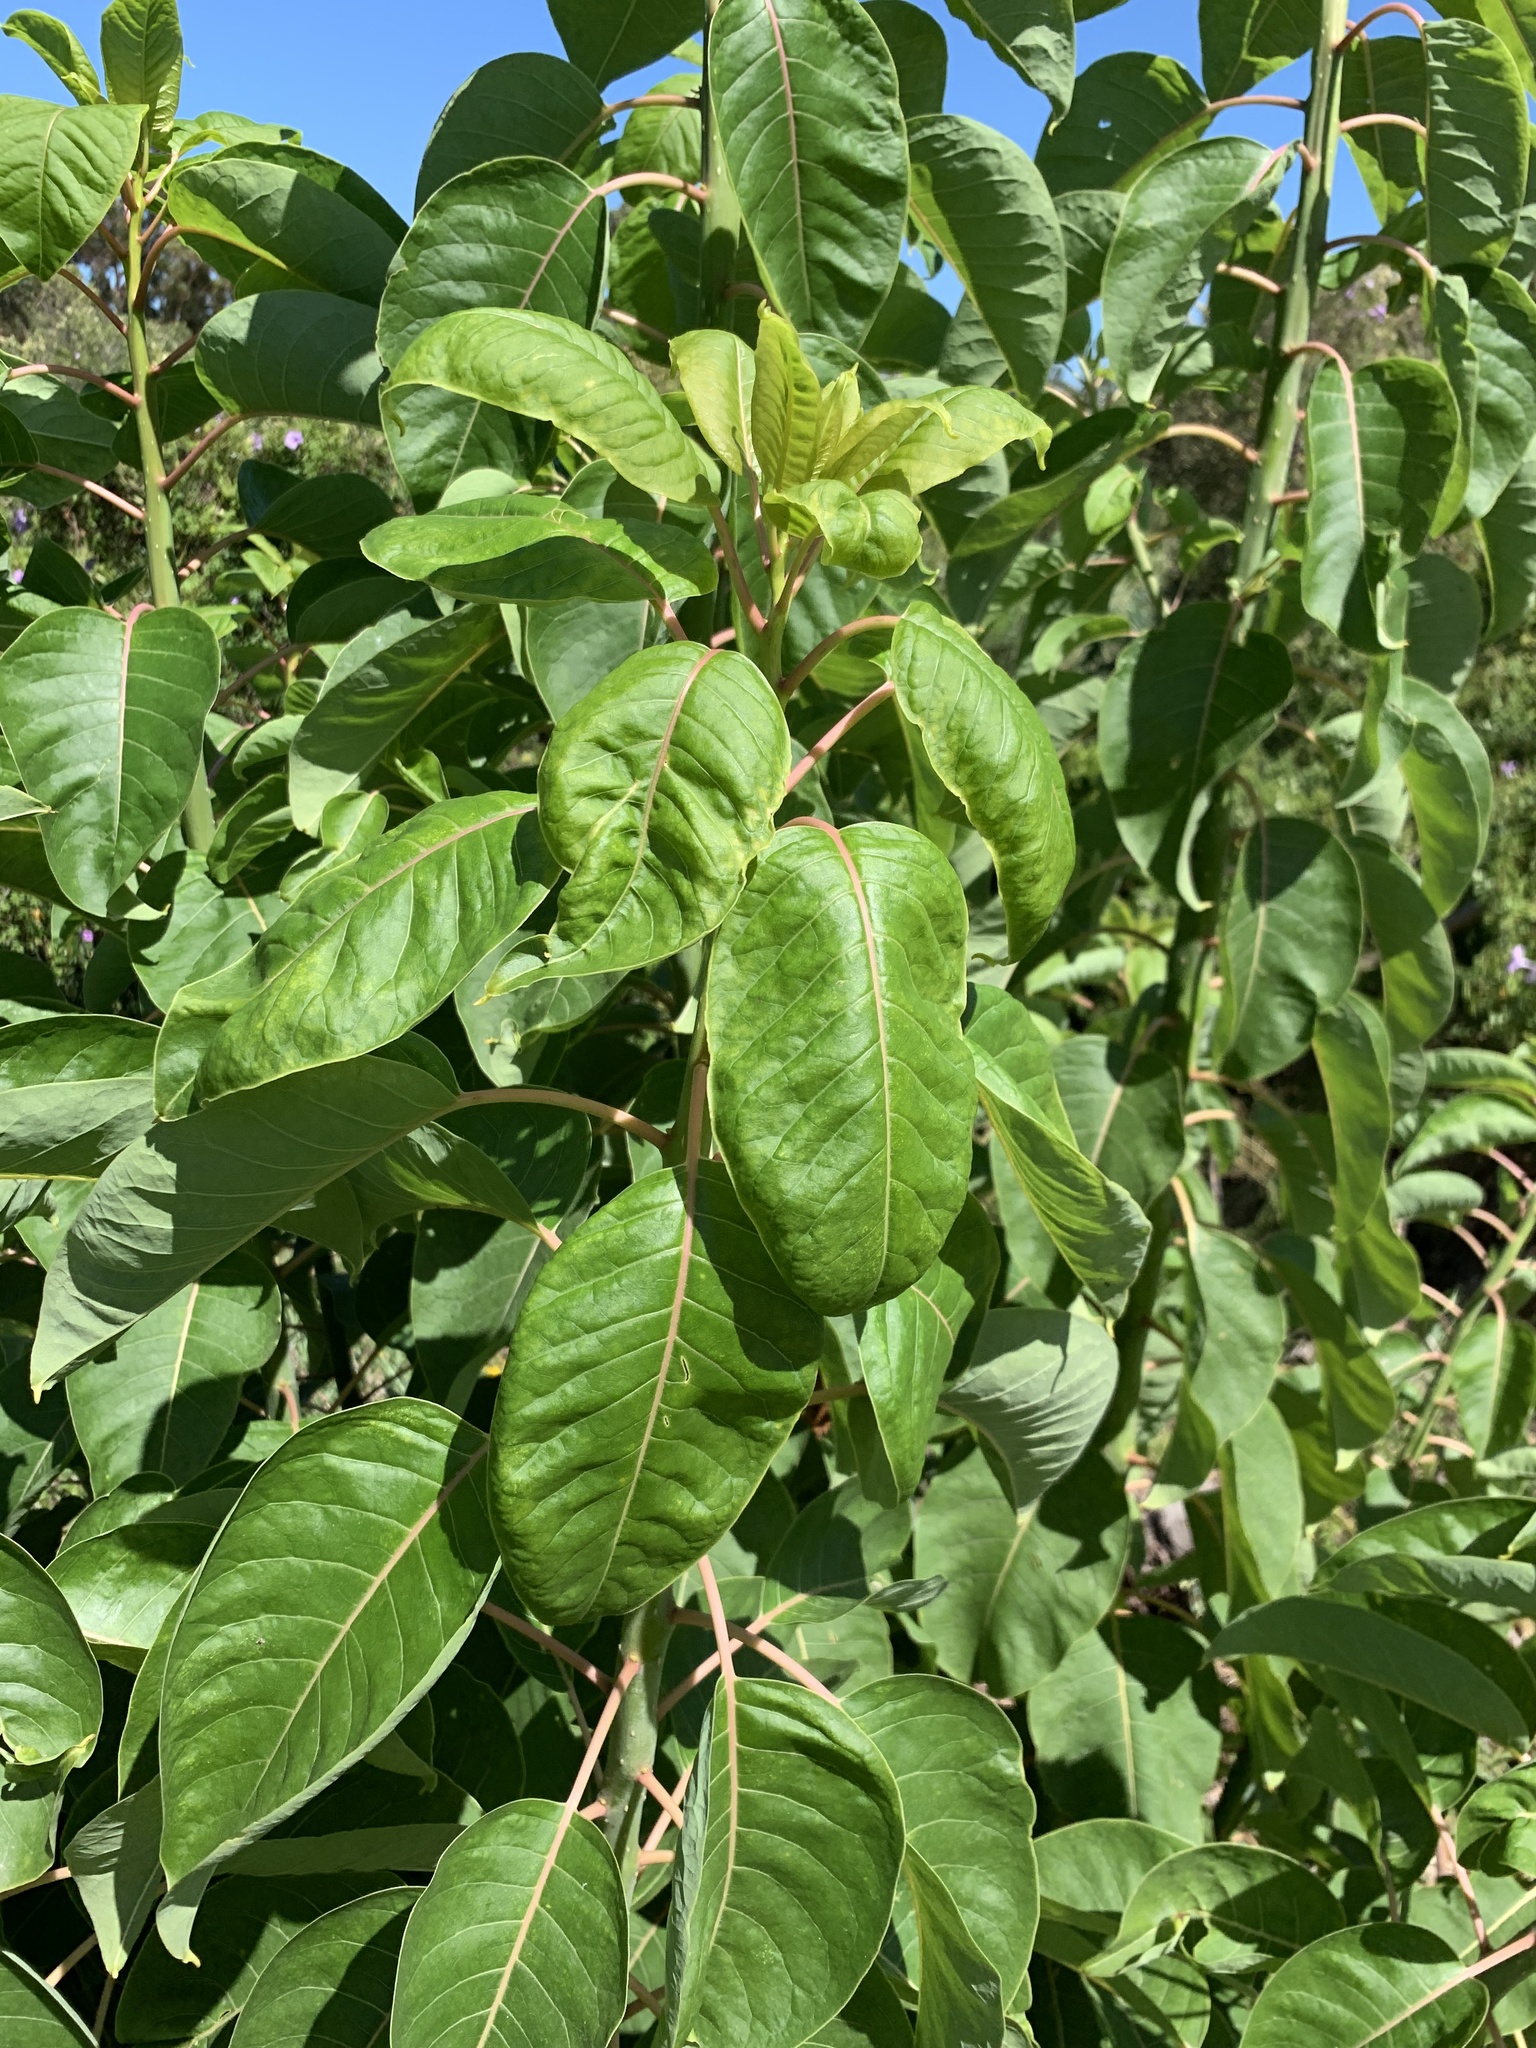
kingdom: Plantae
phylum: Tracheophyta
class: Magnoliopsida
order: Caryophyllales
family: Phytolaccaceae
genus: Phytolacca
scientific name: Phytolacca dioica
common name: Pokeweed
